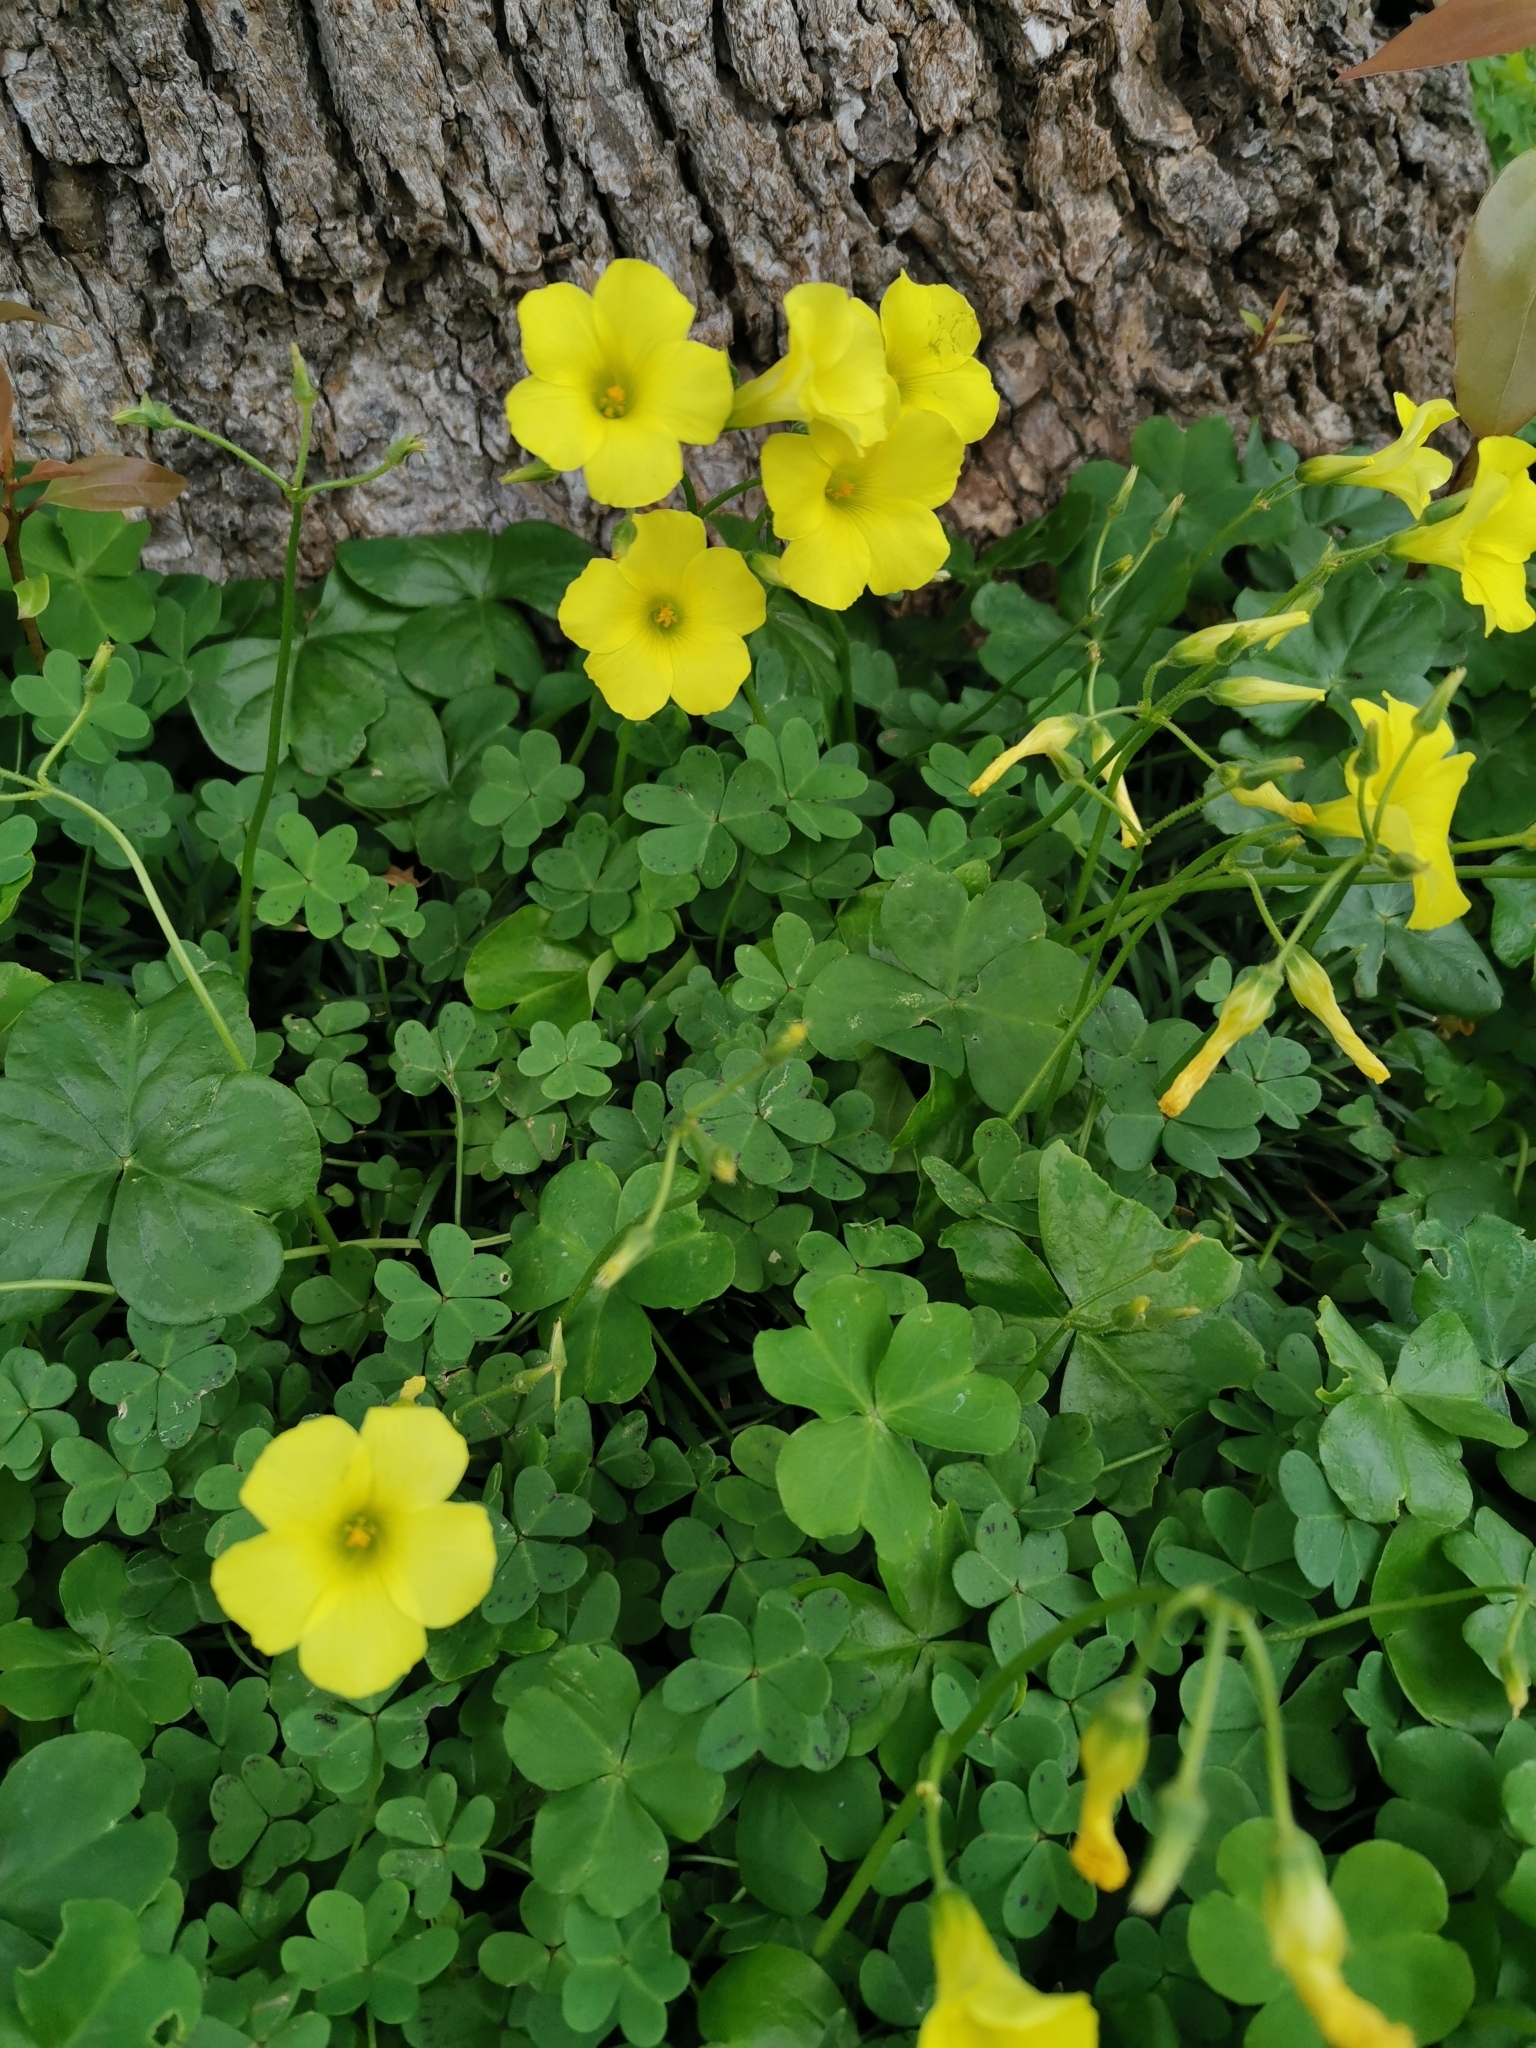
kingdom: Plantae
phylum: Tracheophyta
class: Magnoliopsida
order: Oxalidales
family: Oxalidaceae
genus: Oxalis
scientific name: Oxalis pes-caprae
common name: Bermuda-buttercup
